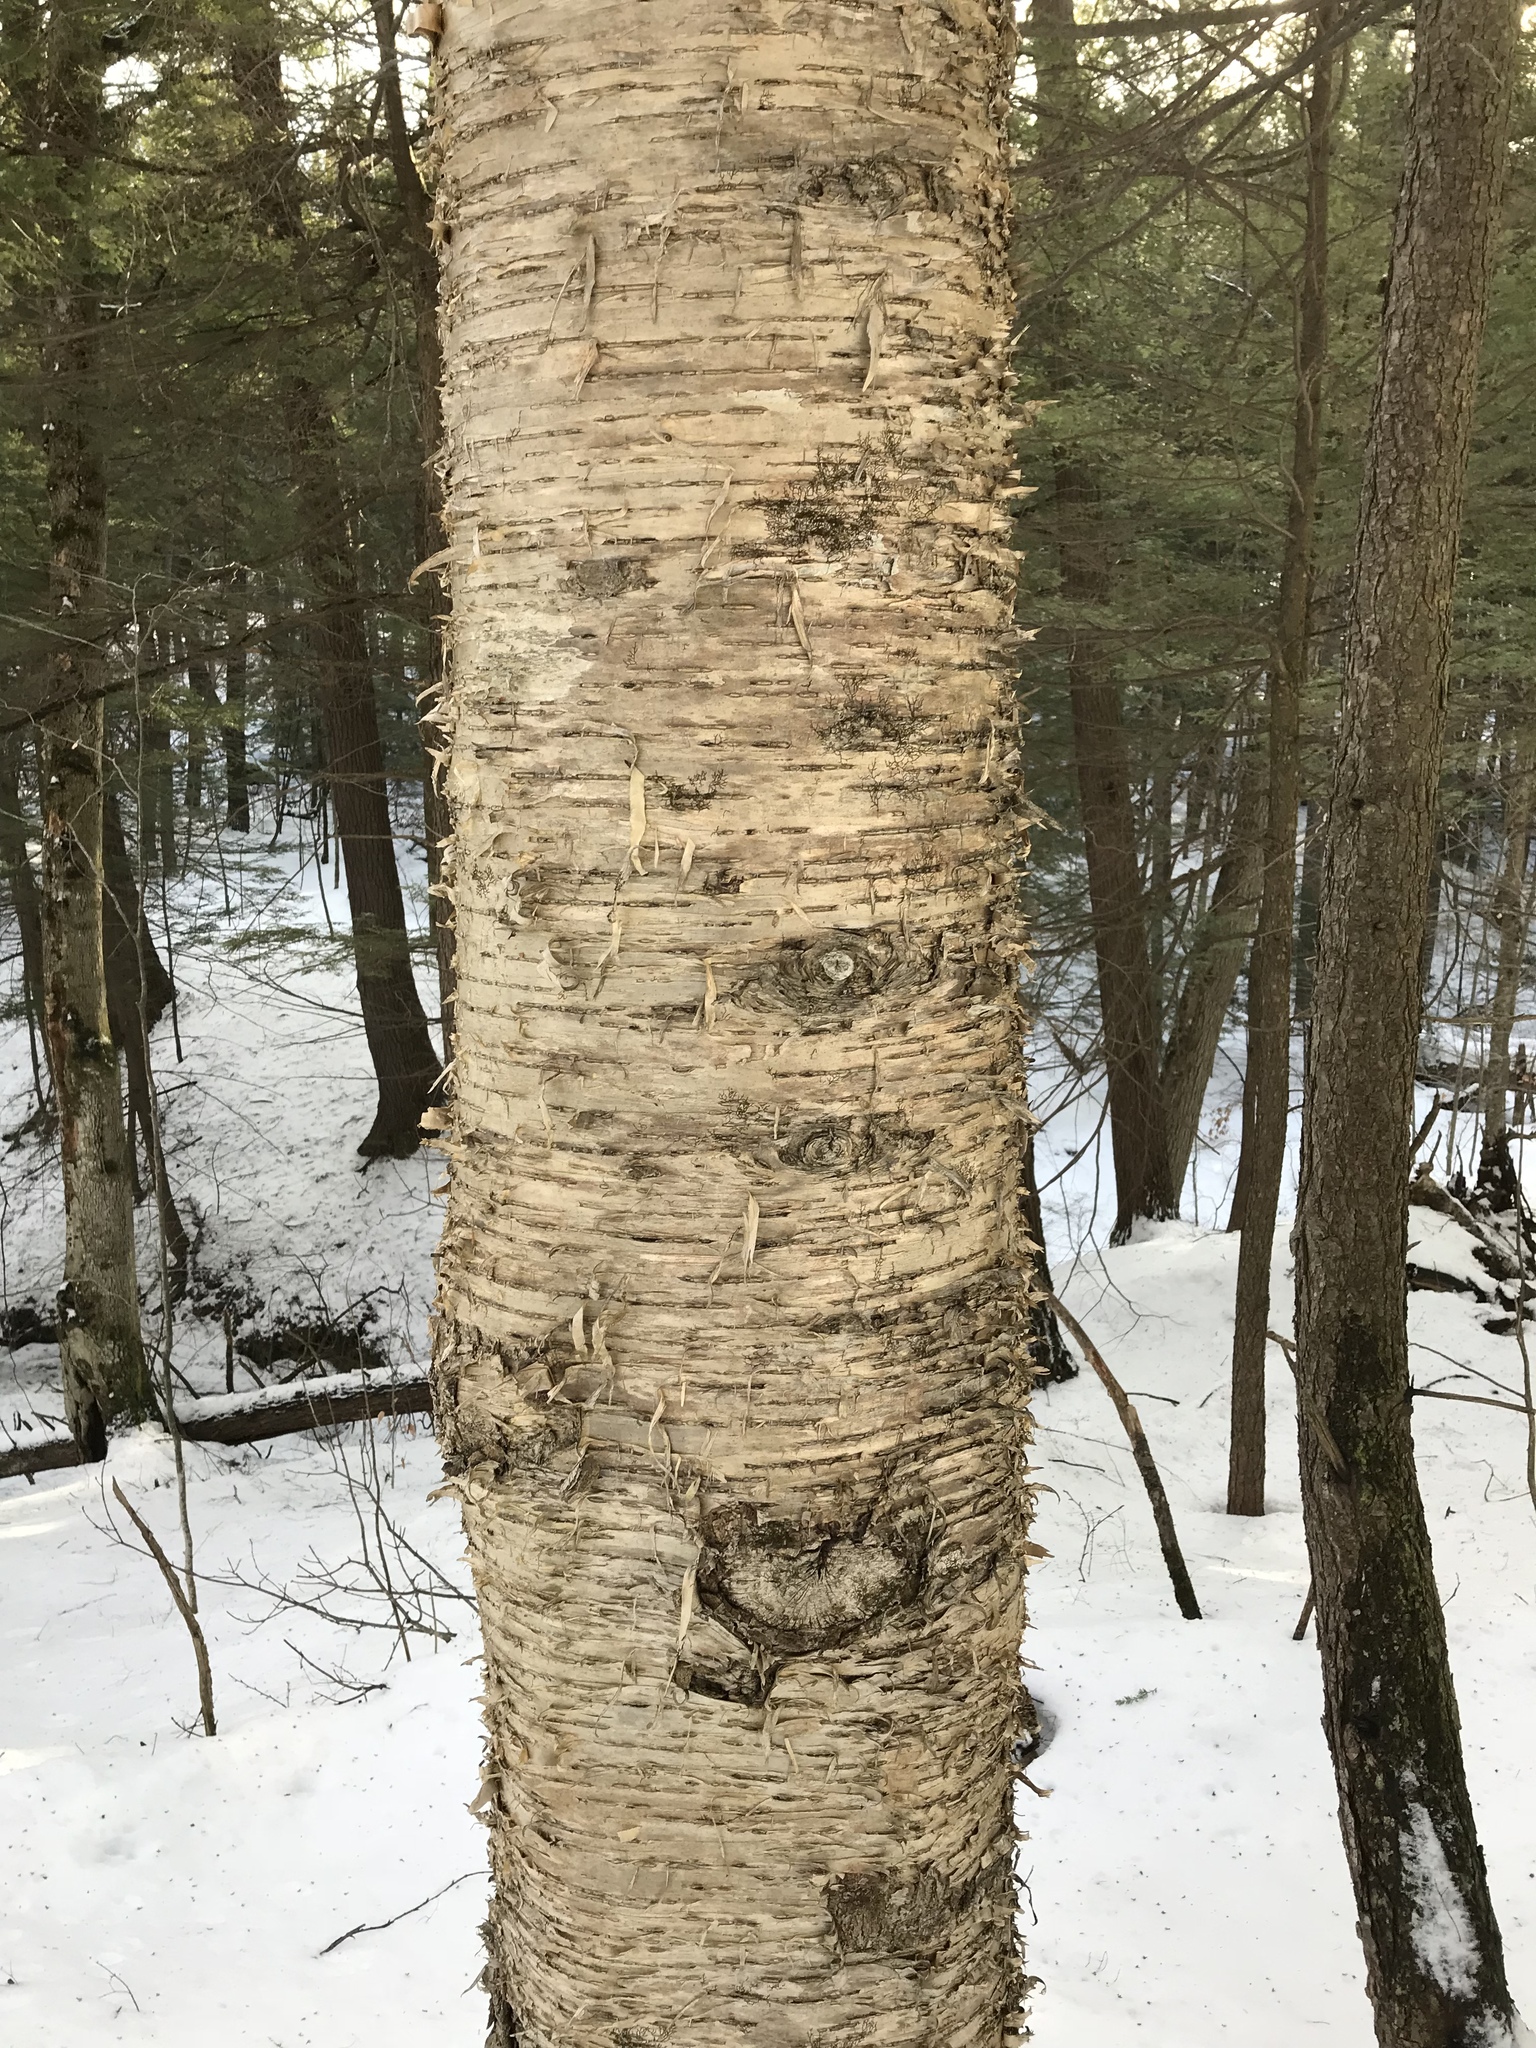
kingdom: Plantae
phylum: Tracheophyta
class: Magnoliopsida
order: Fagales
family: Betulaceae
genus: Betula
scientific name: Betula alleghaniensis
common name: Yellow birch
